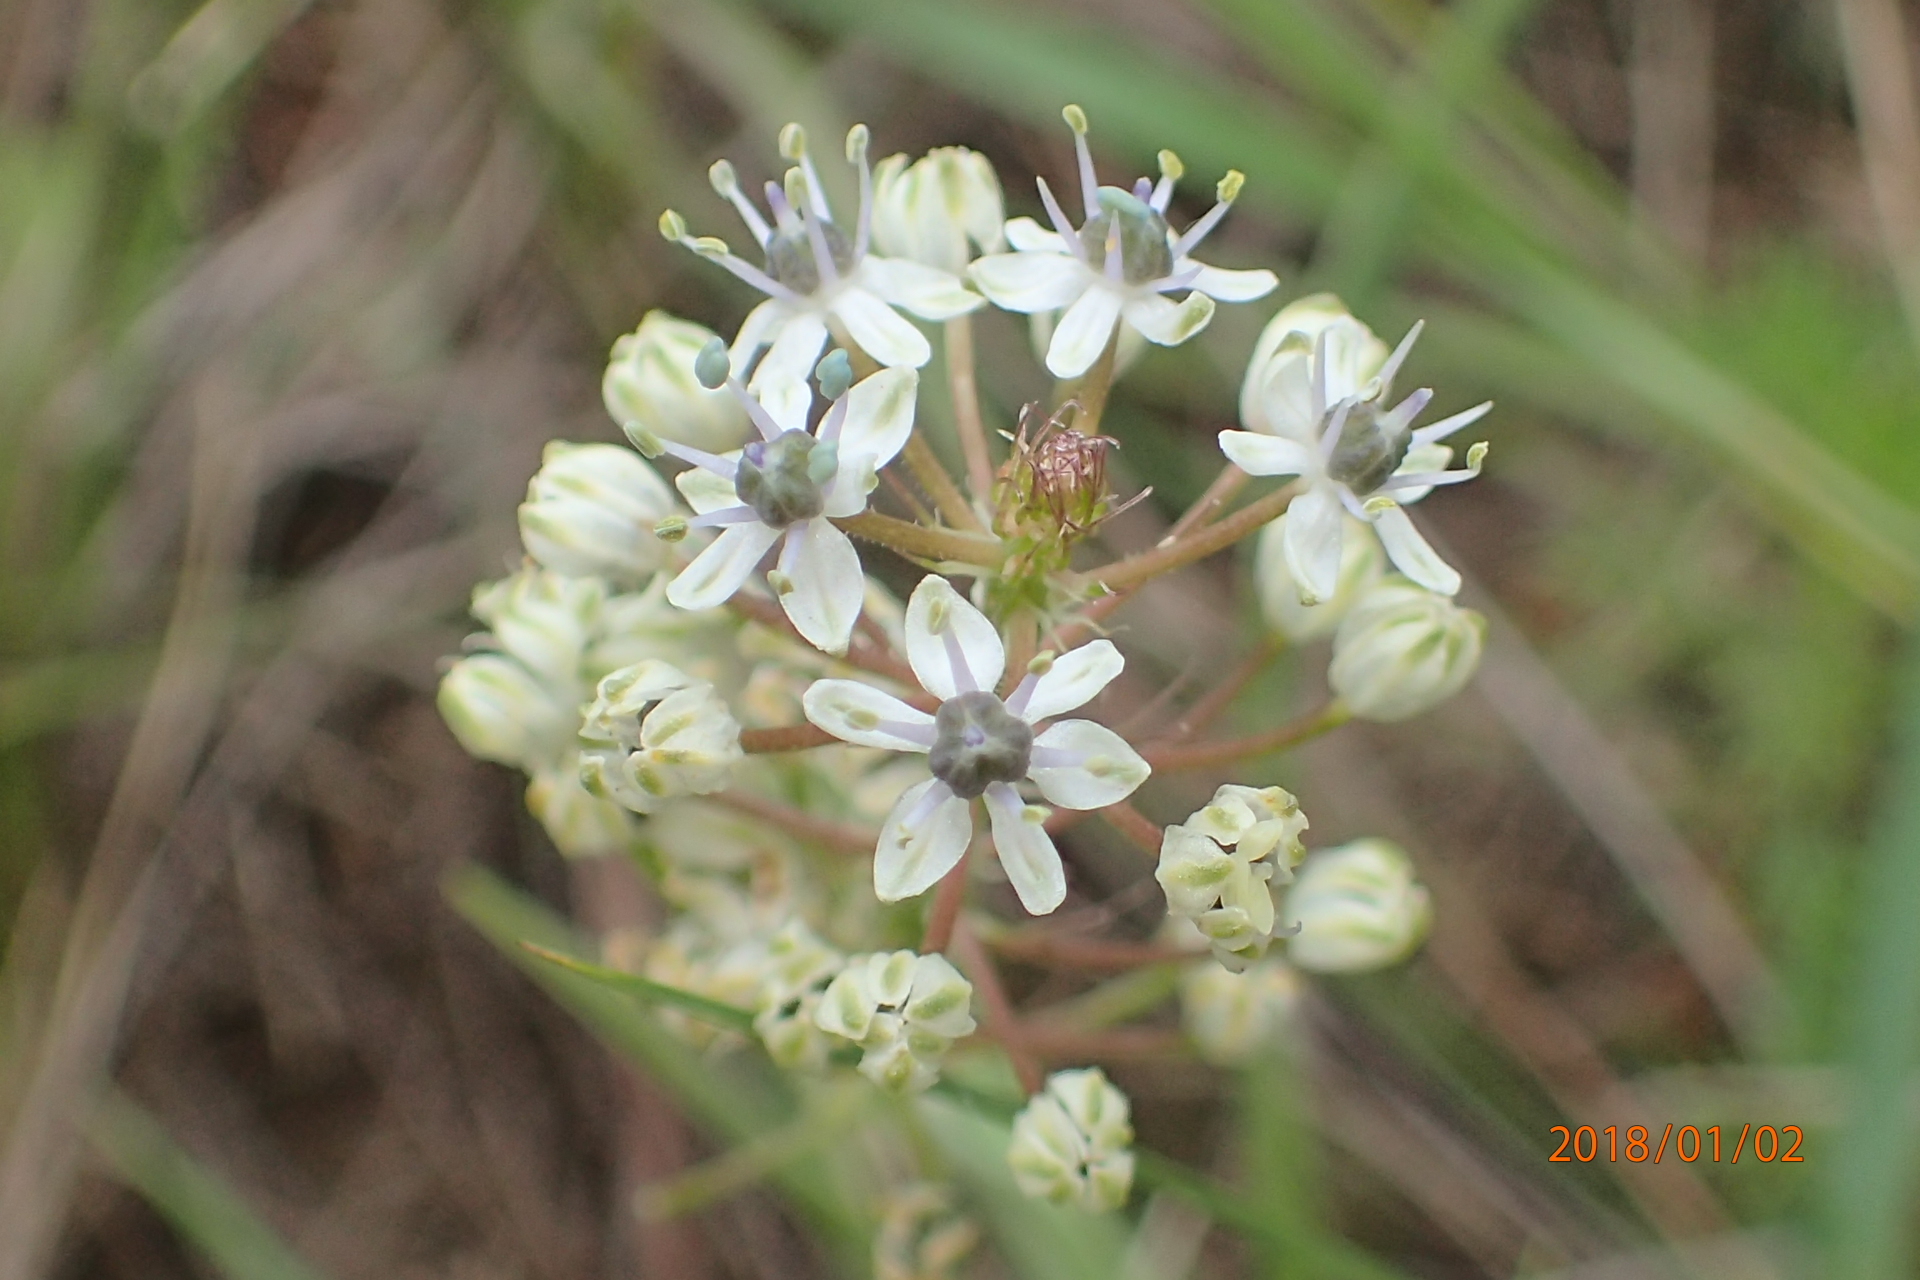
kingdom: Plantae
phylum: Tracheophyta
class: Liliopsida
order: Asparagales
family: Asparagaceae
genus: Schizocarphus
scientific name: Schizocarphus nervosus
